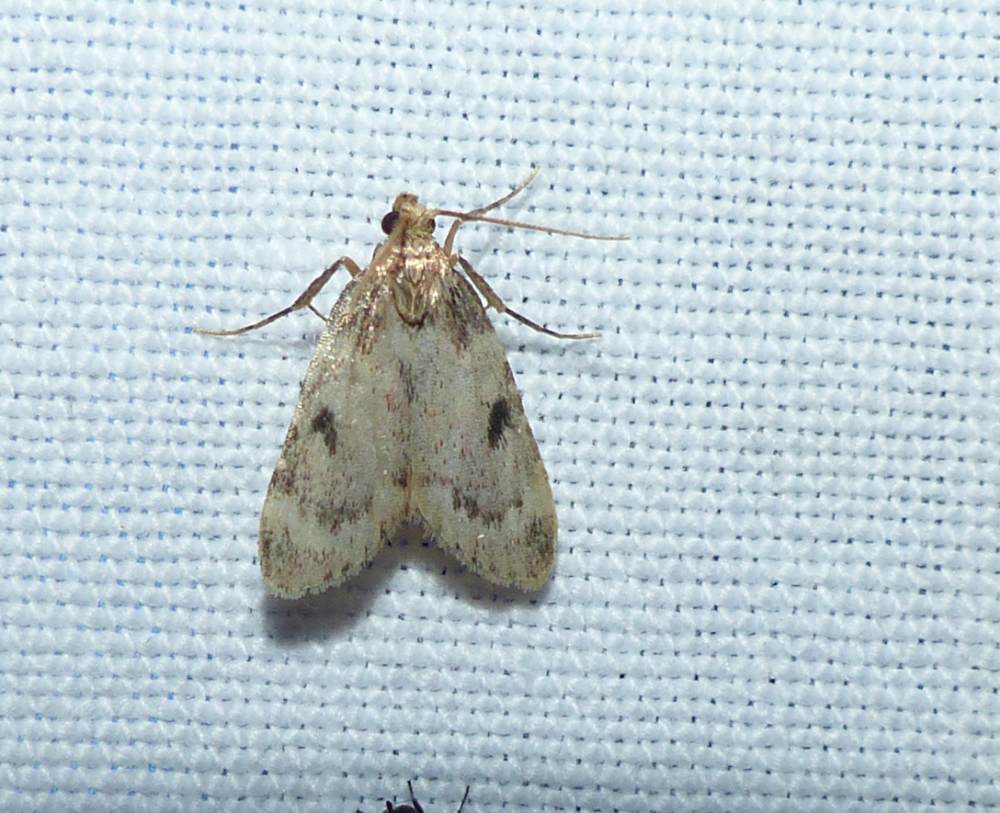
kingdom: Animalia
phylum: Arthropoda
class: Insecta
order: Lepidoptera
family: Pyralidae
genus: Aglossa
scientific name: Aglossa costiferalis
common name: Calico pyralid moth
